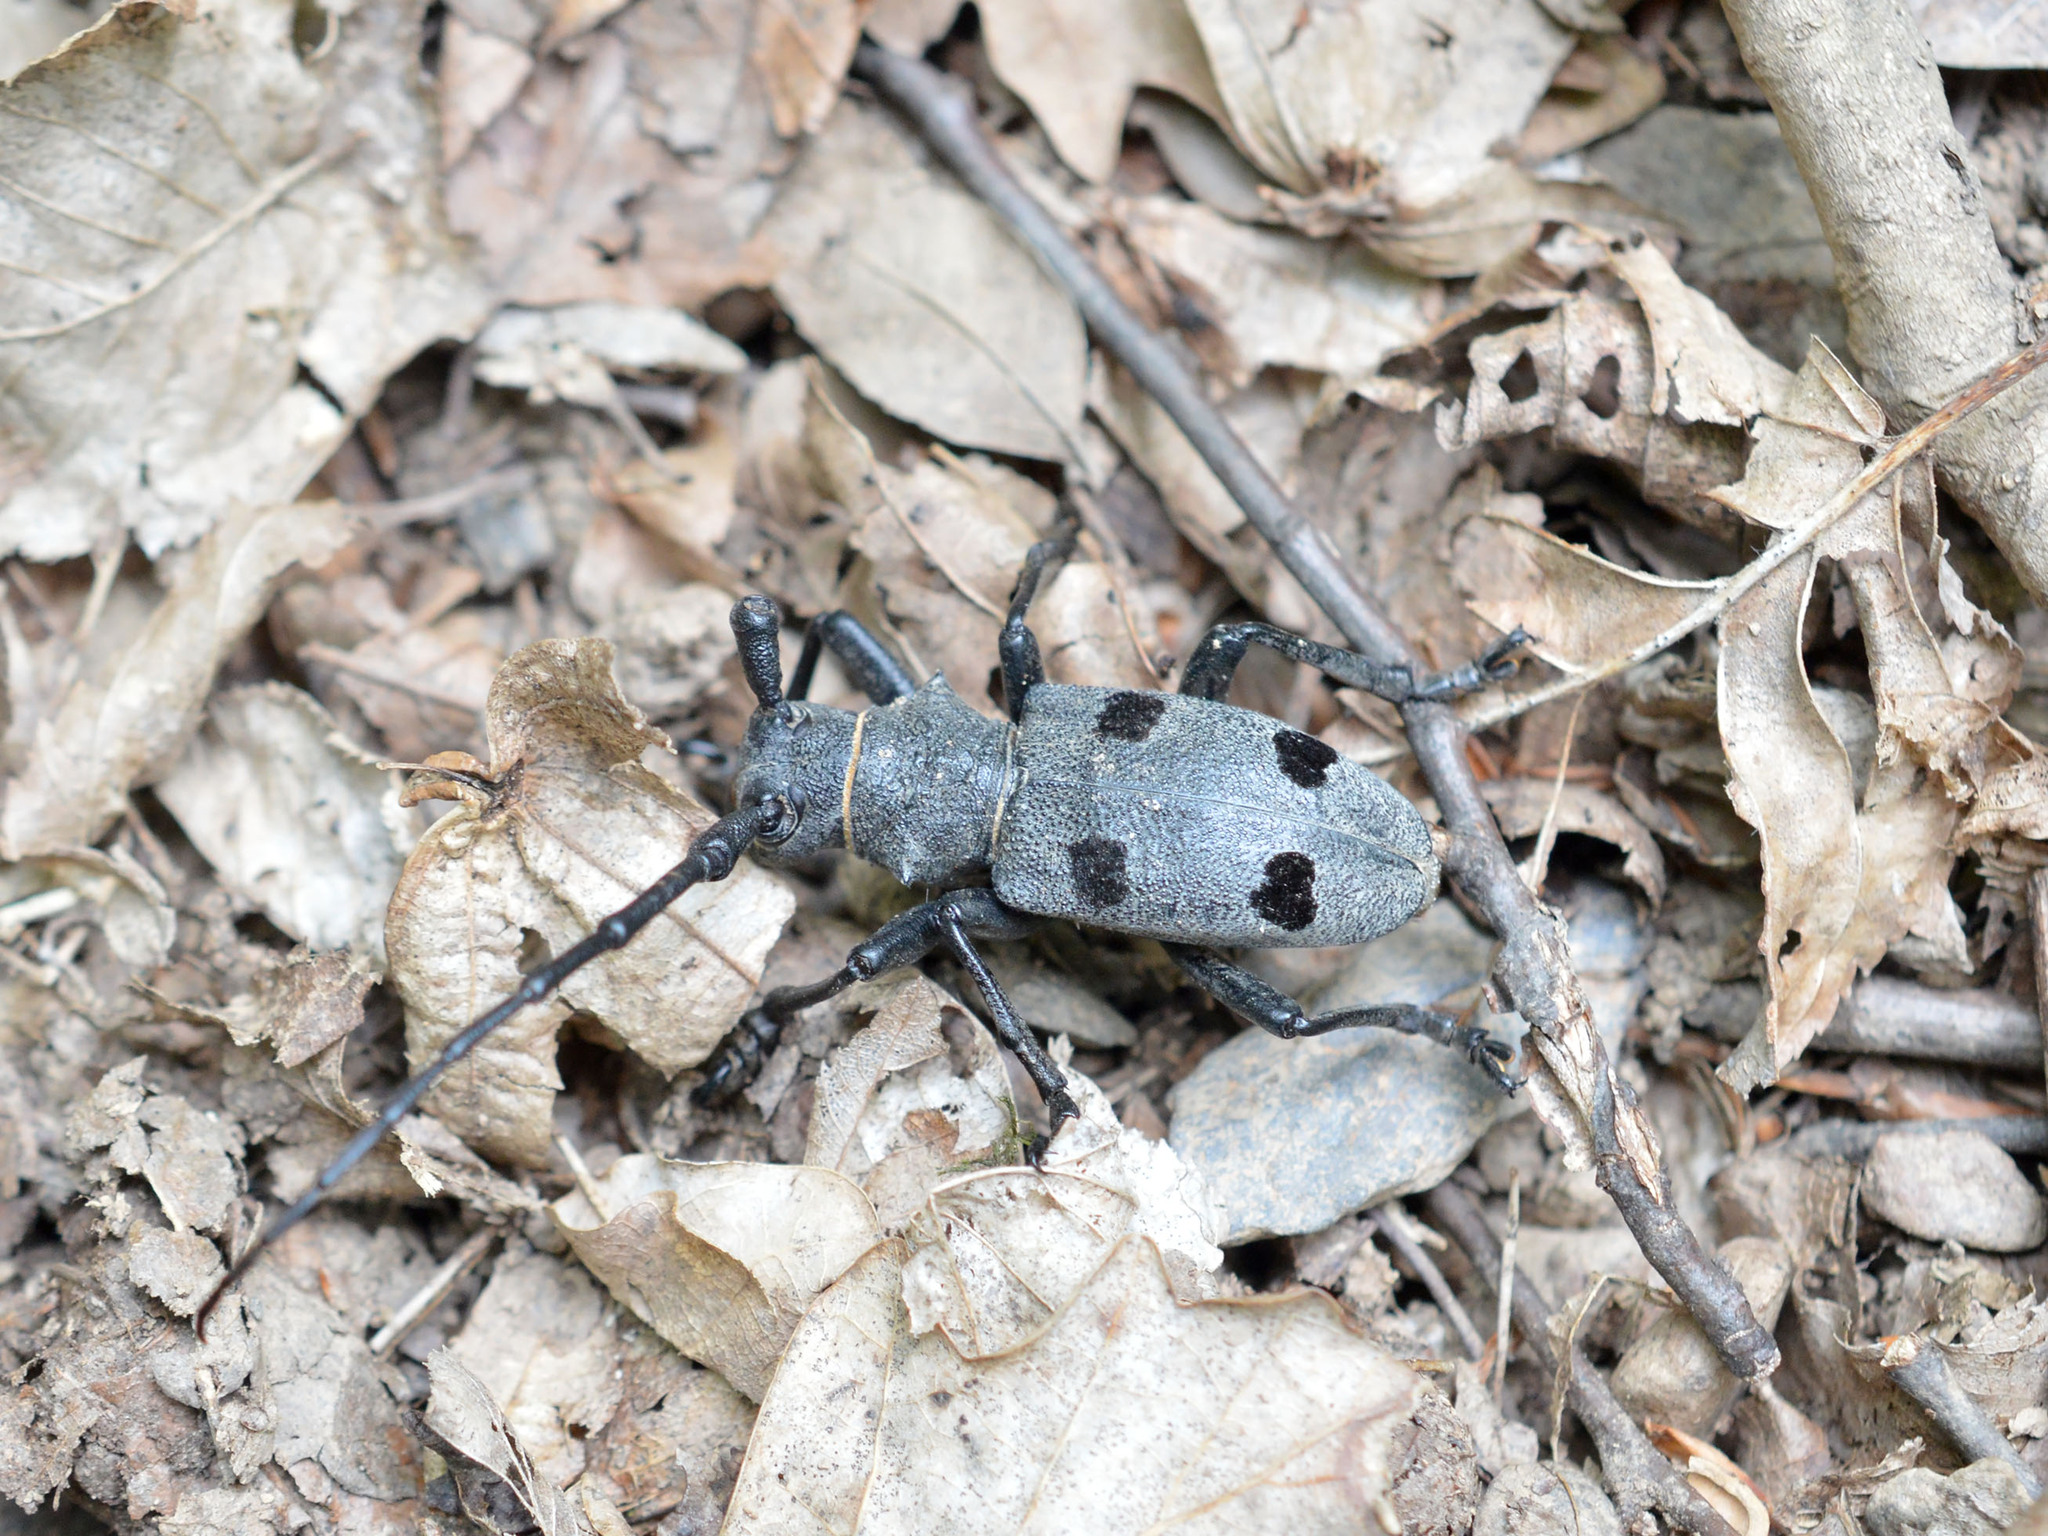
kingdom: Animalia
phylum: Arthropoda
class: Insecta
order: Coleoptera
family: Cerambycidae
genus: Morimus
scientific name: Morimus funereus
